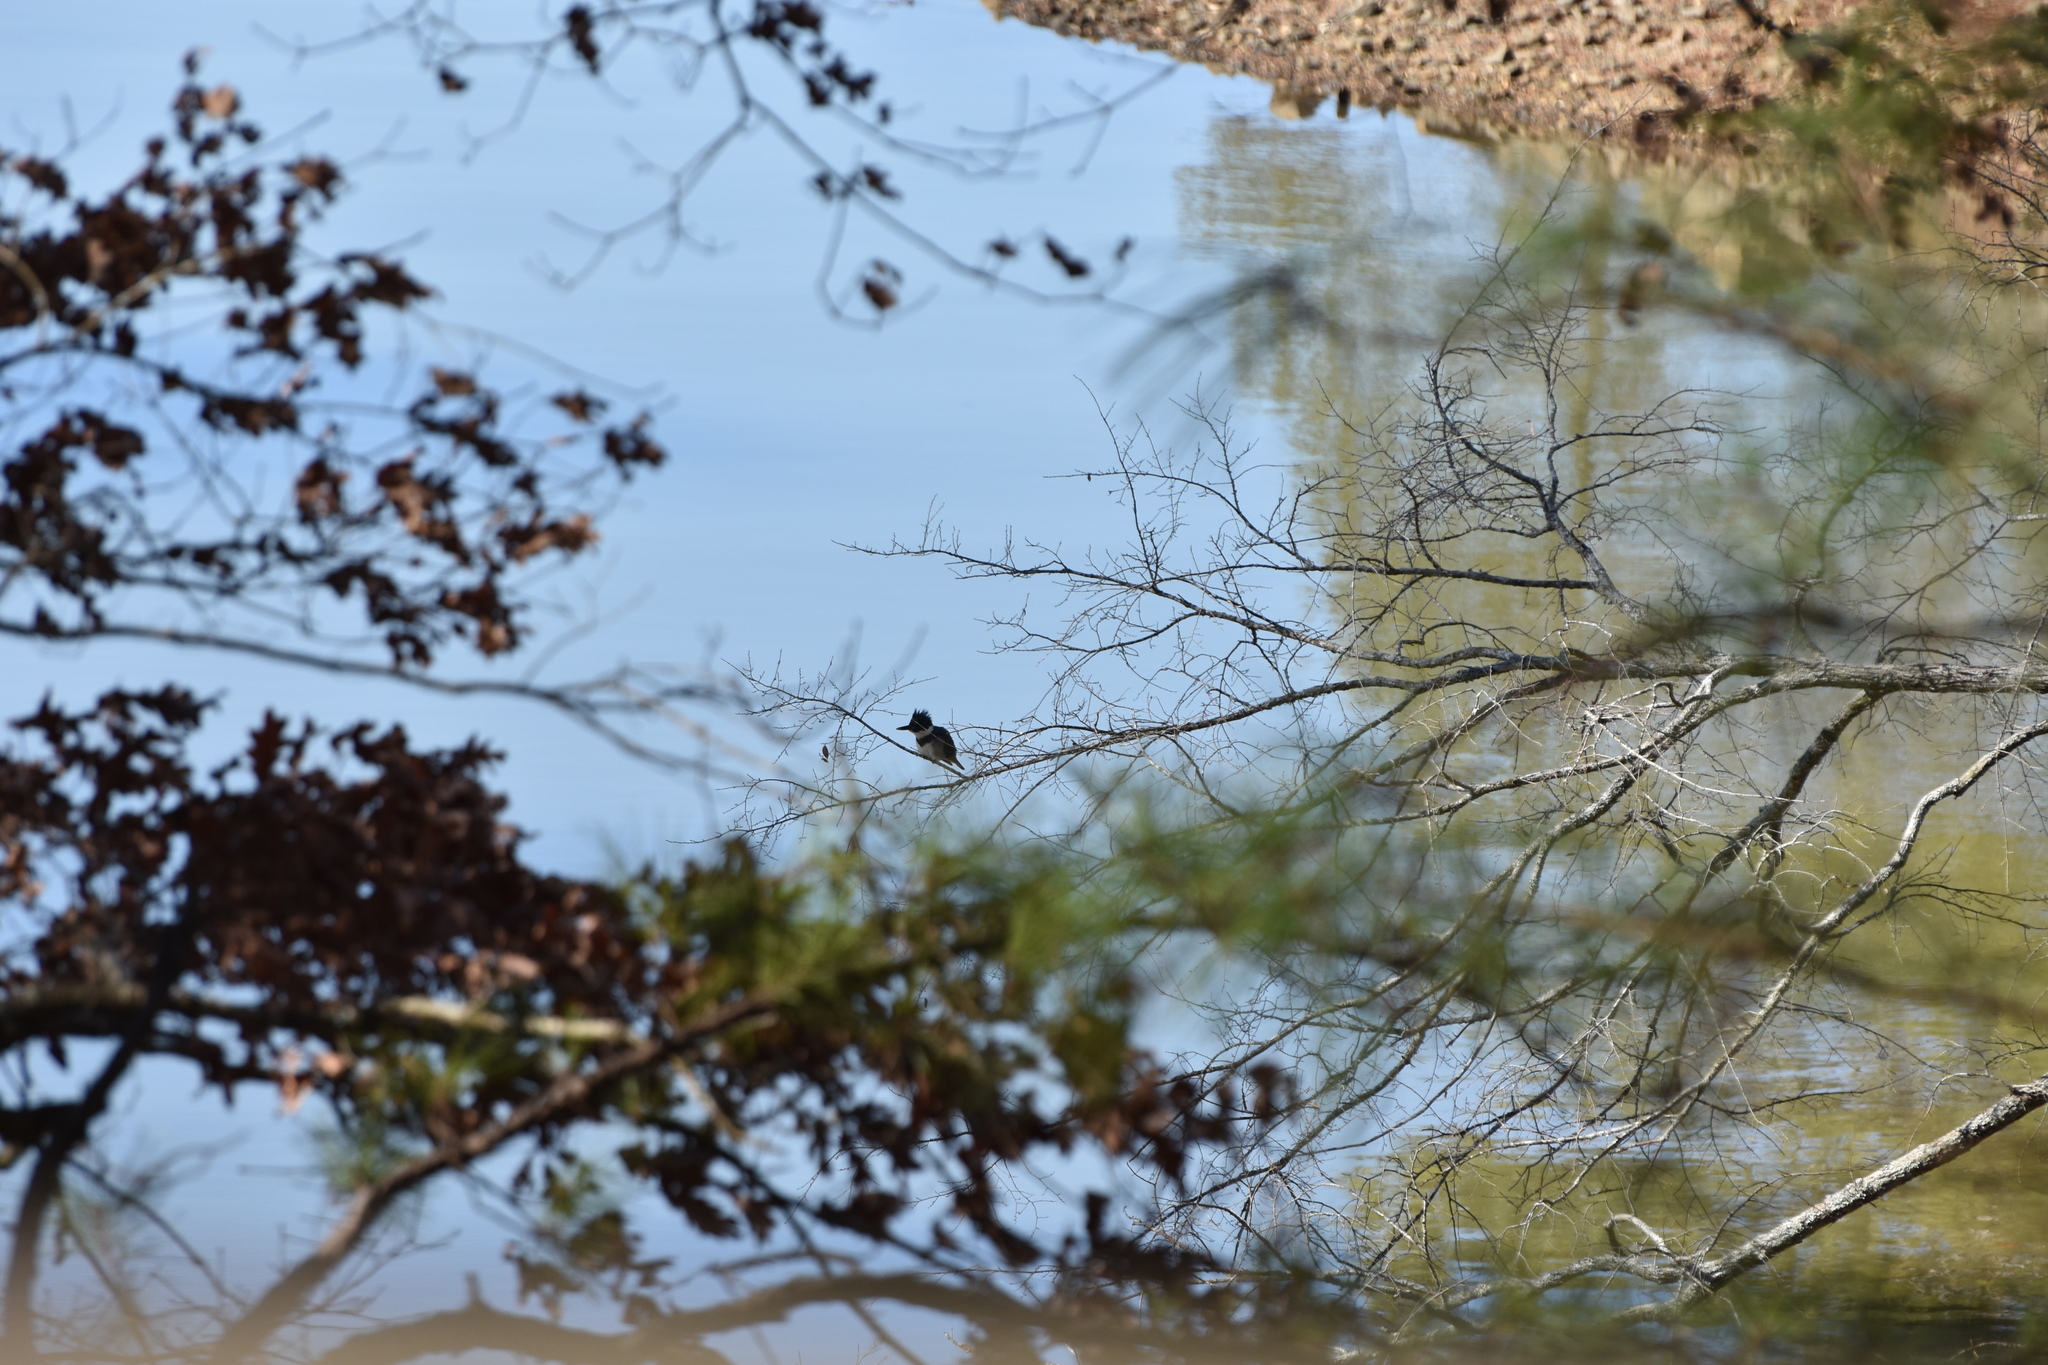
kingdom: Animalia
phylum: Chordata
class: Aves
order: Coraciiformes
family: Alcedinidae
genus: Megaceryle
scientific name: Megaceryle alcyon
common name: Belted kingfisher
